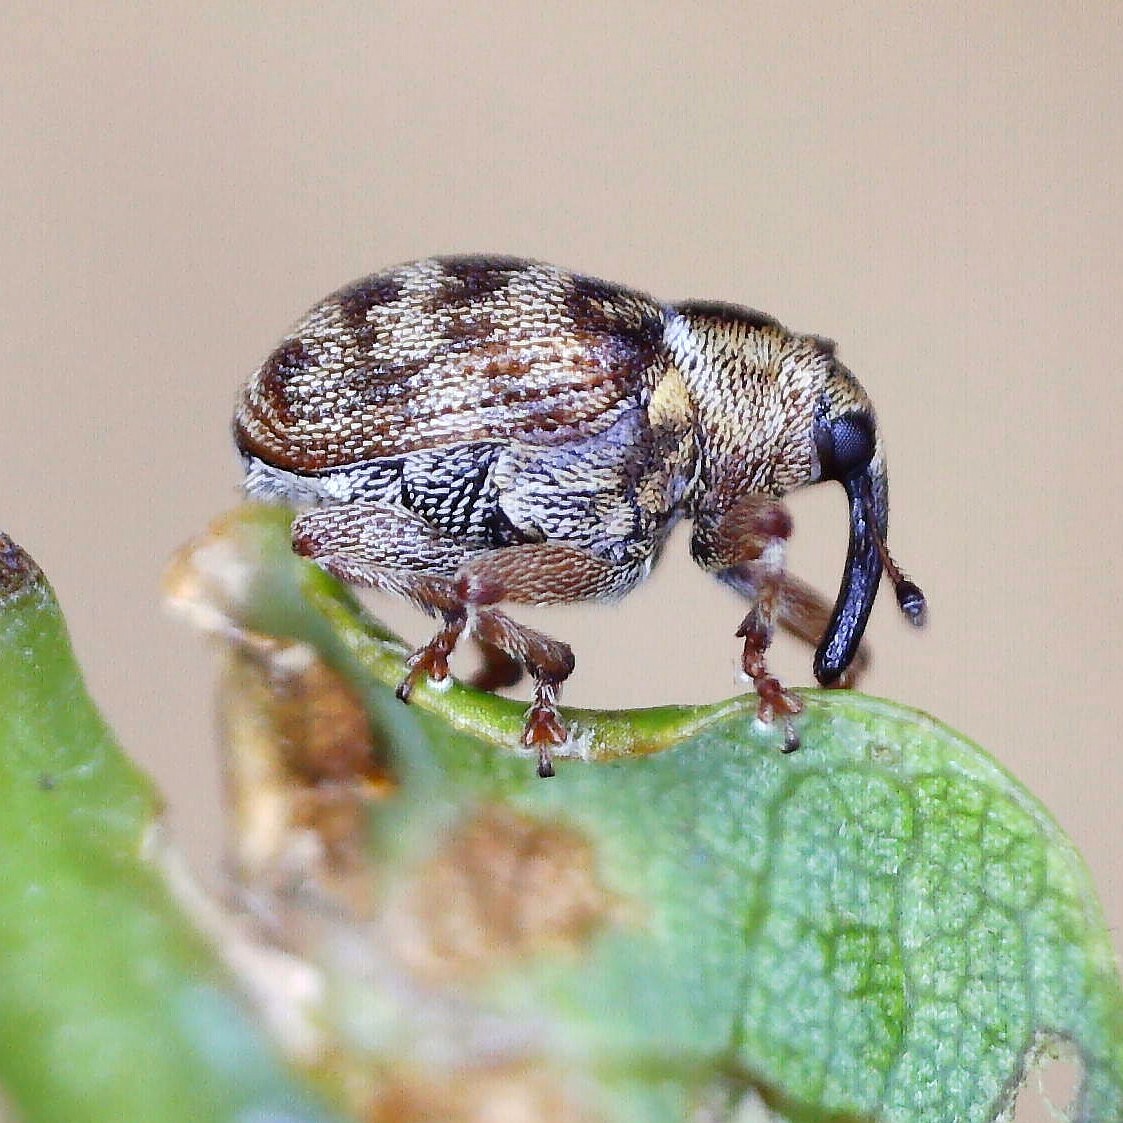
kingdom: Animalia
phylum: Arthropoda
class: Insecta
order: Coleoptera
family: Curculionidae
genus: Coeliodes
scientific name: Coeliodes rana
